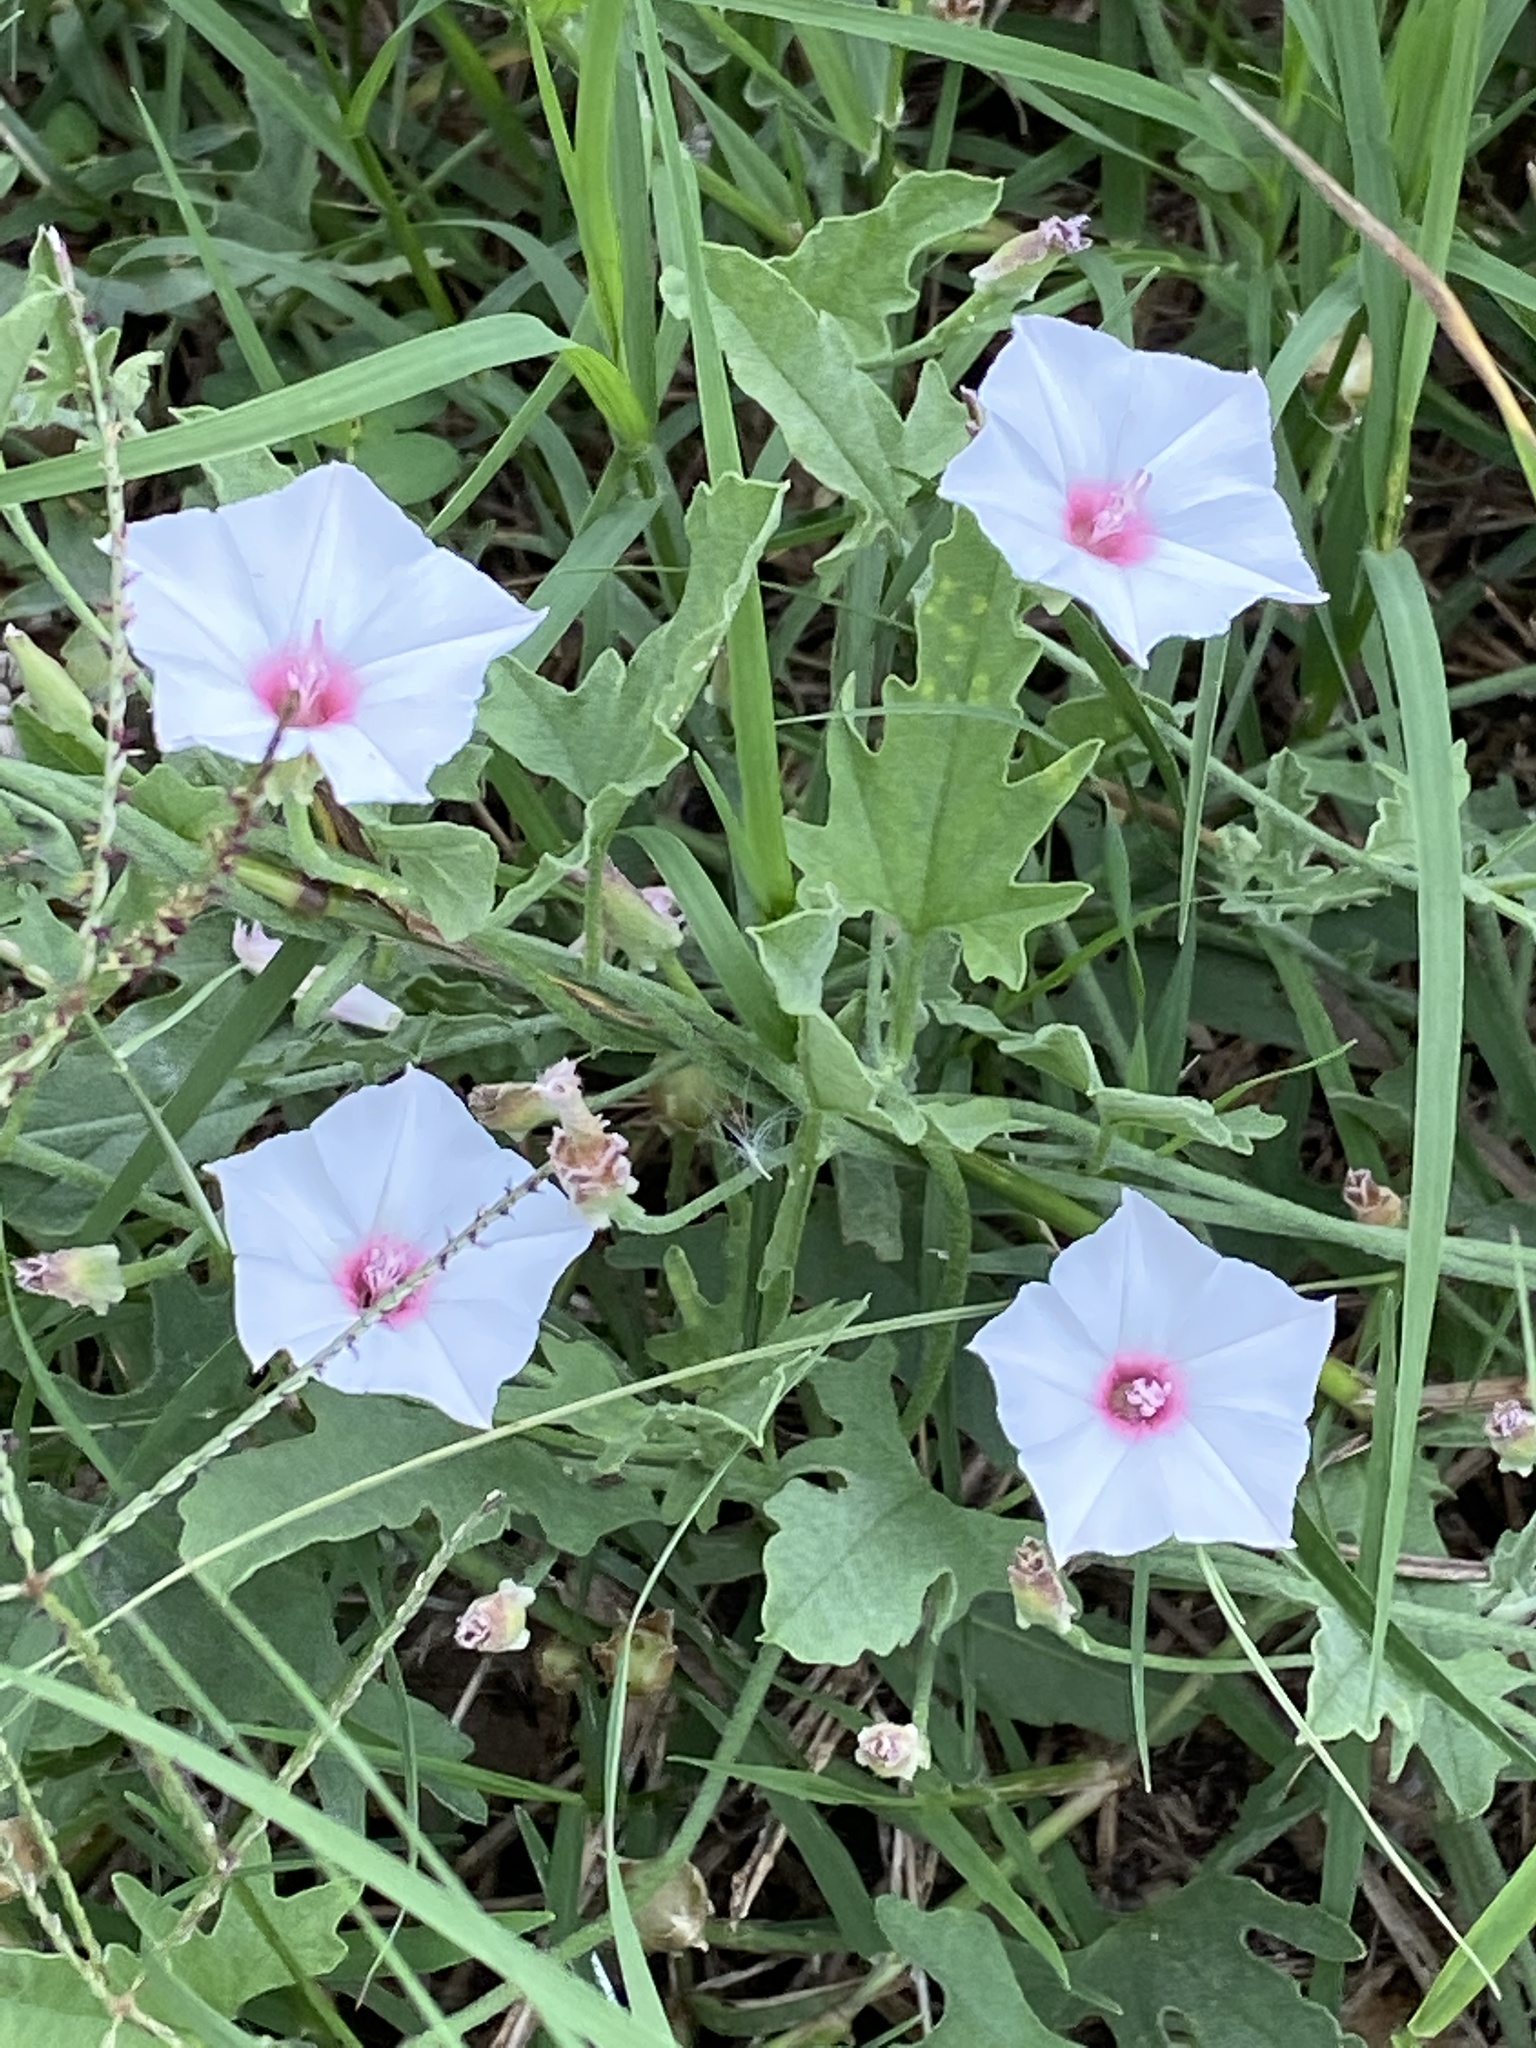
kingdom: Plantae
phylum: Tracheophyta
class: Magnoliopsida
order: Solanales
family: Convolvulaceae
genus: Convolvulus
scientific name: Convolvulus equitans
